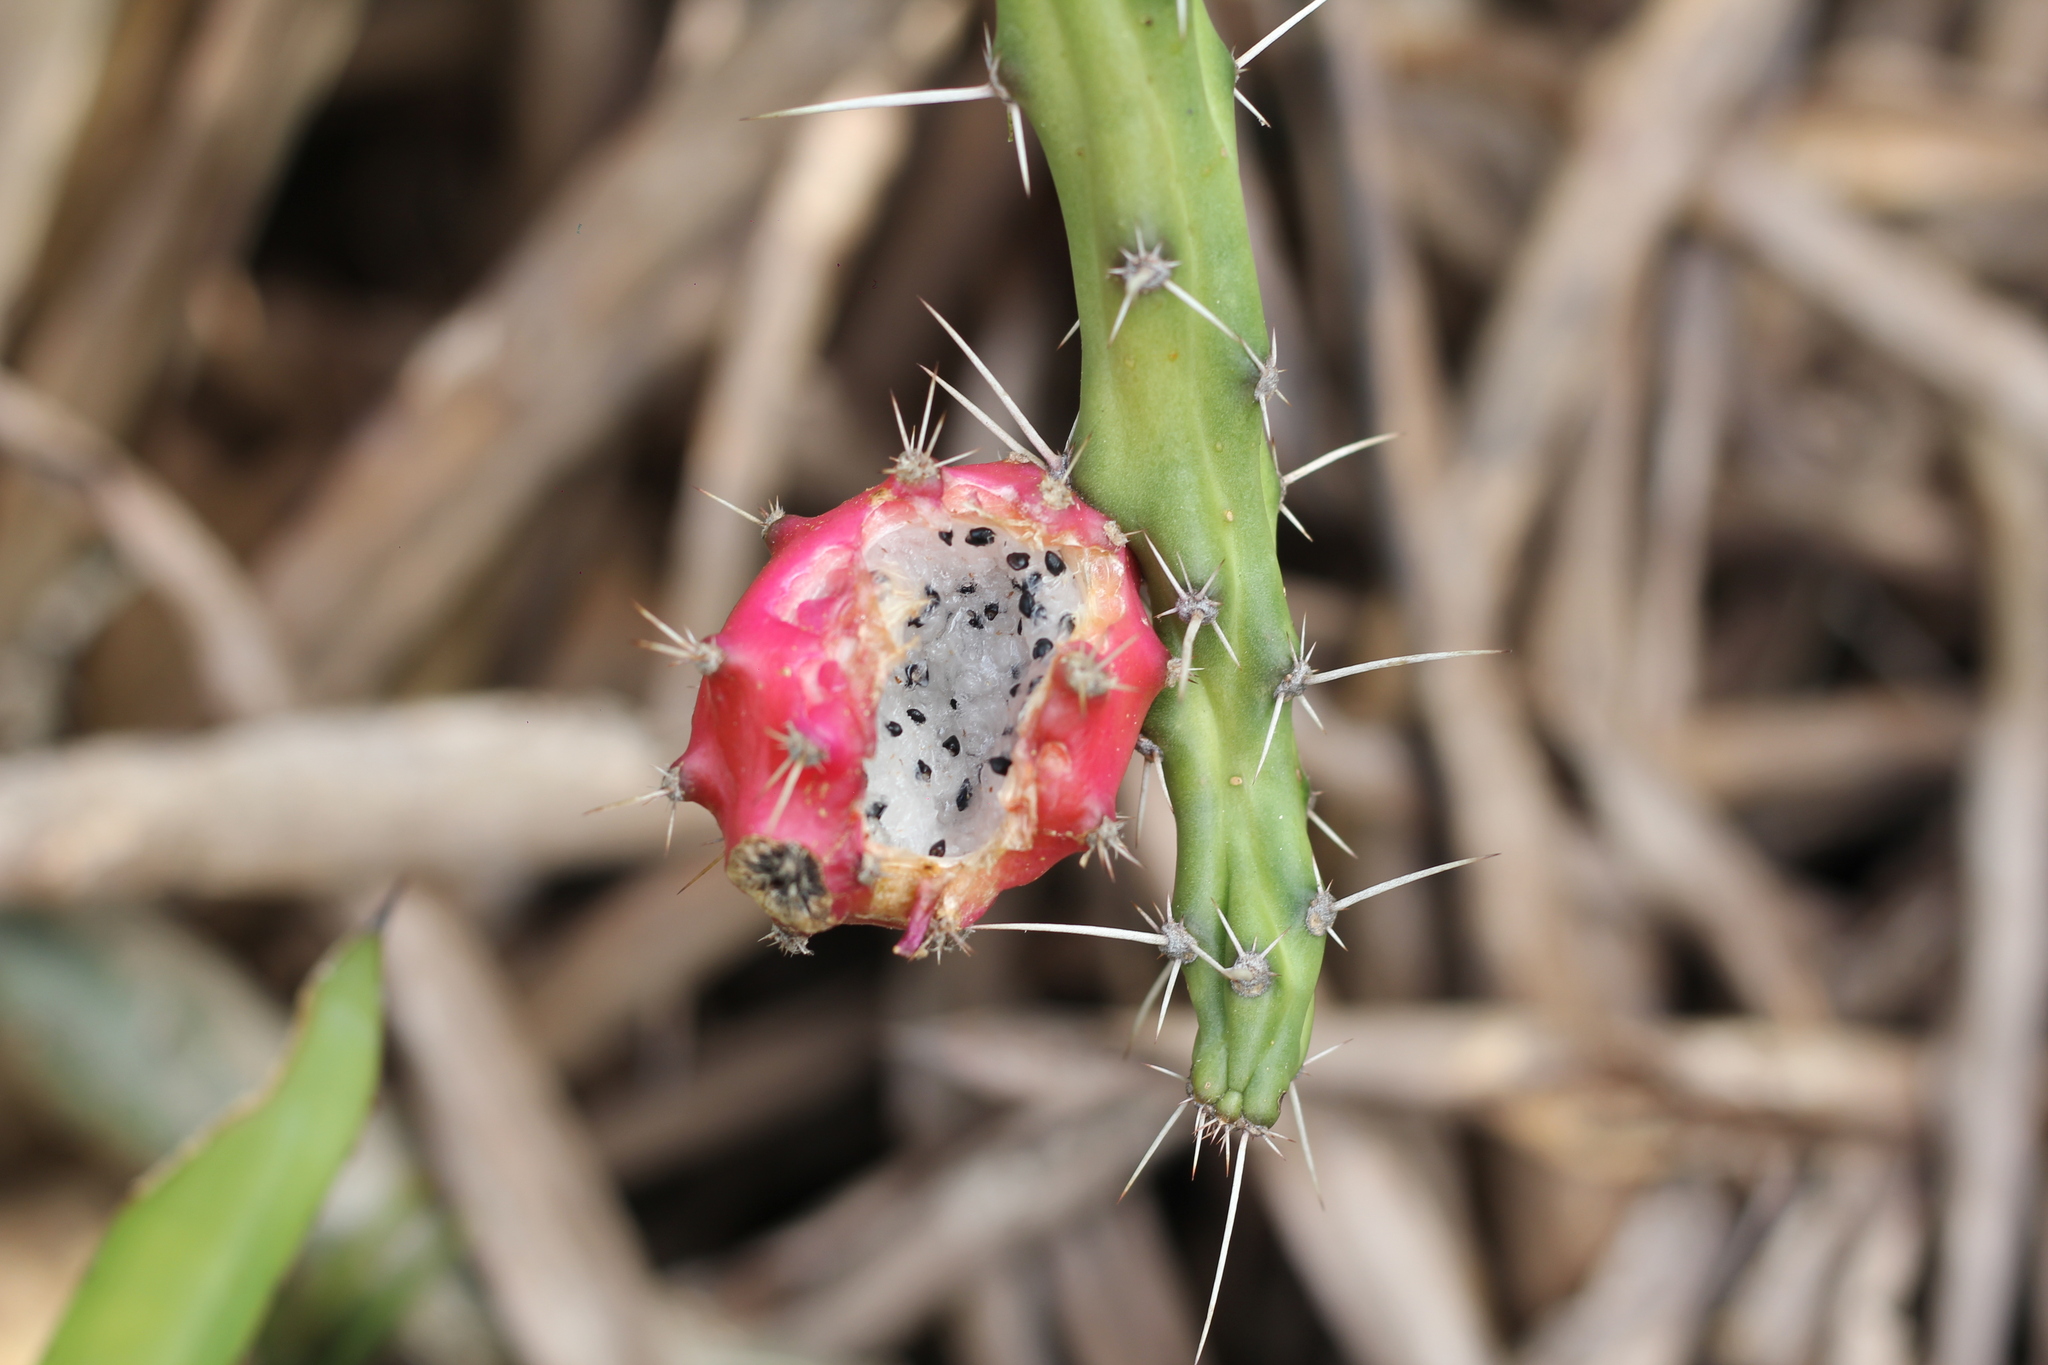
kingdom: Plantae
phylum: Tracheophyta
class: Magnoliopsida
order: Caryophyllales
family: Cactaceae
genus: Harrisia
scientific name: Harrisia martinii
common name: Moon cactus
